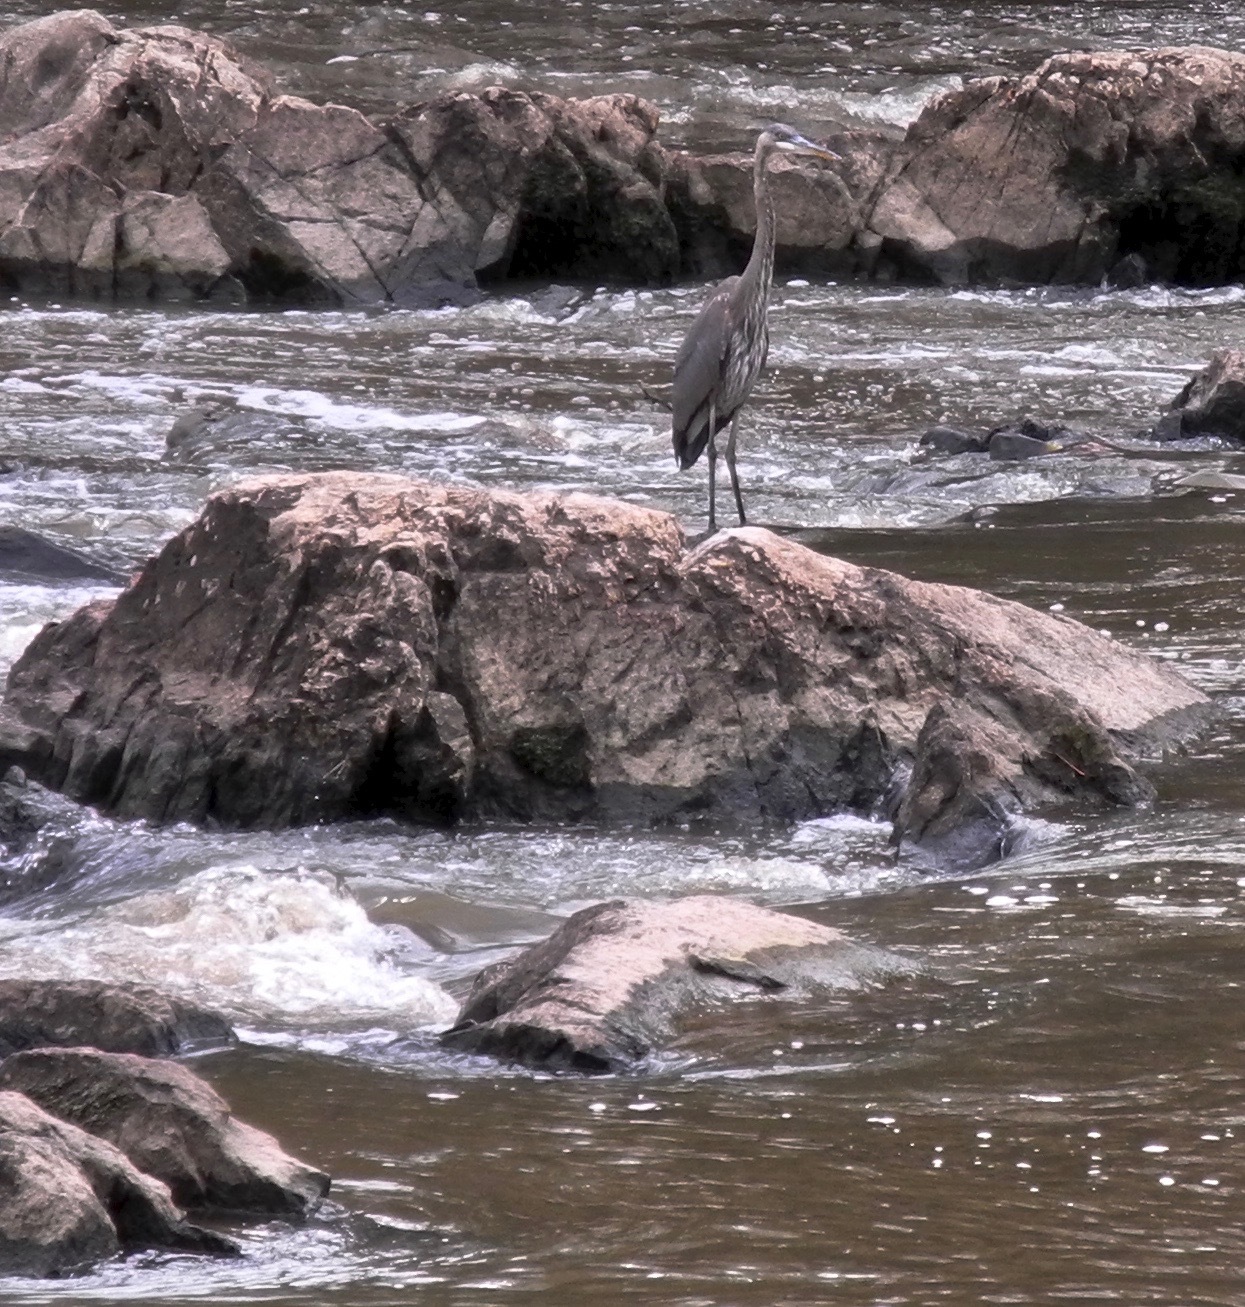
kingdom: Animalia
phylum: Chordata
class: Aves
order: Pelecaniformes
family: Ardeidae
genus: Ardea
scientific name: Ardea herodias
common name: Great blue heron
